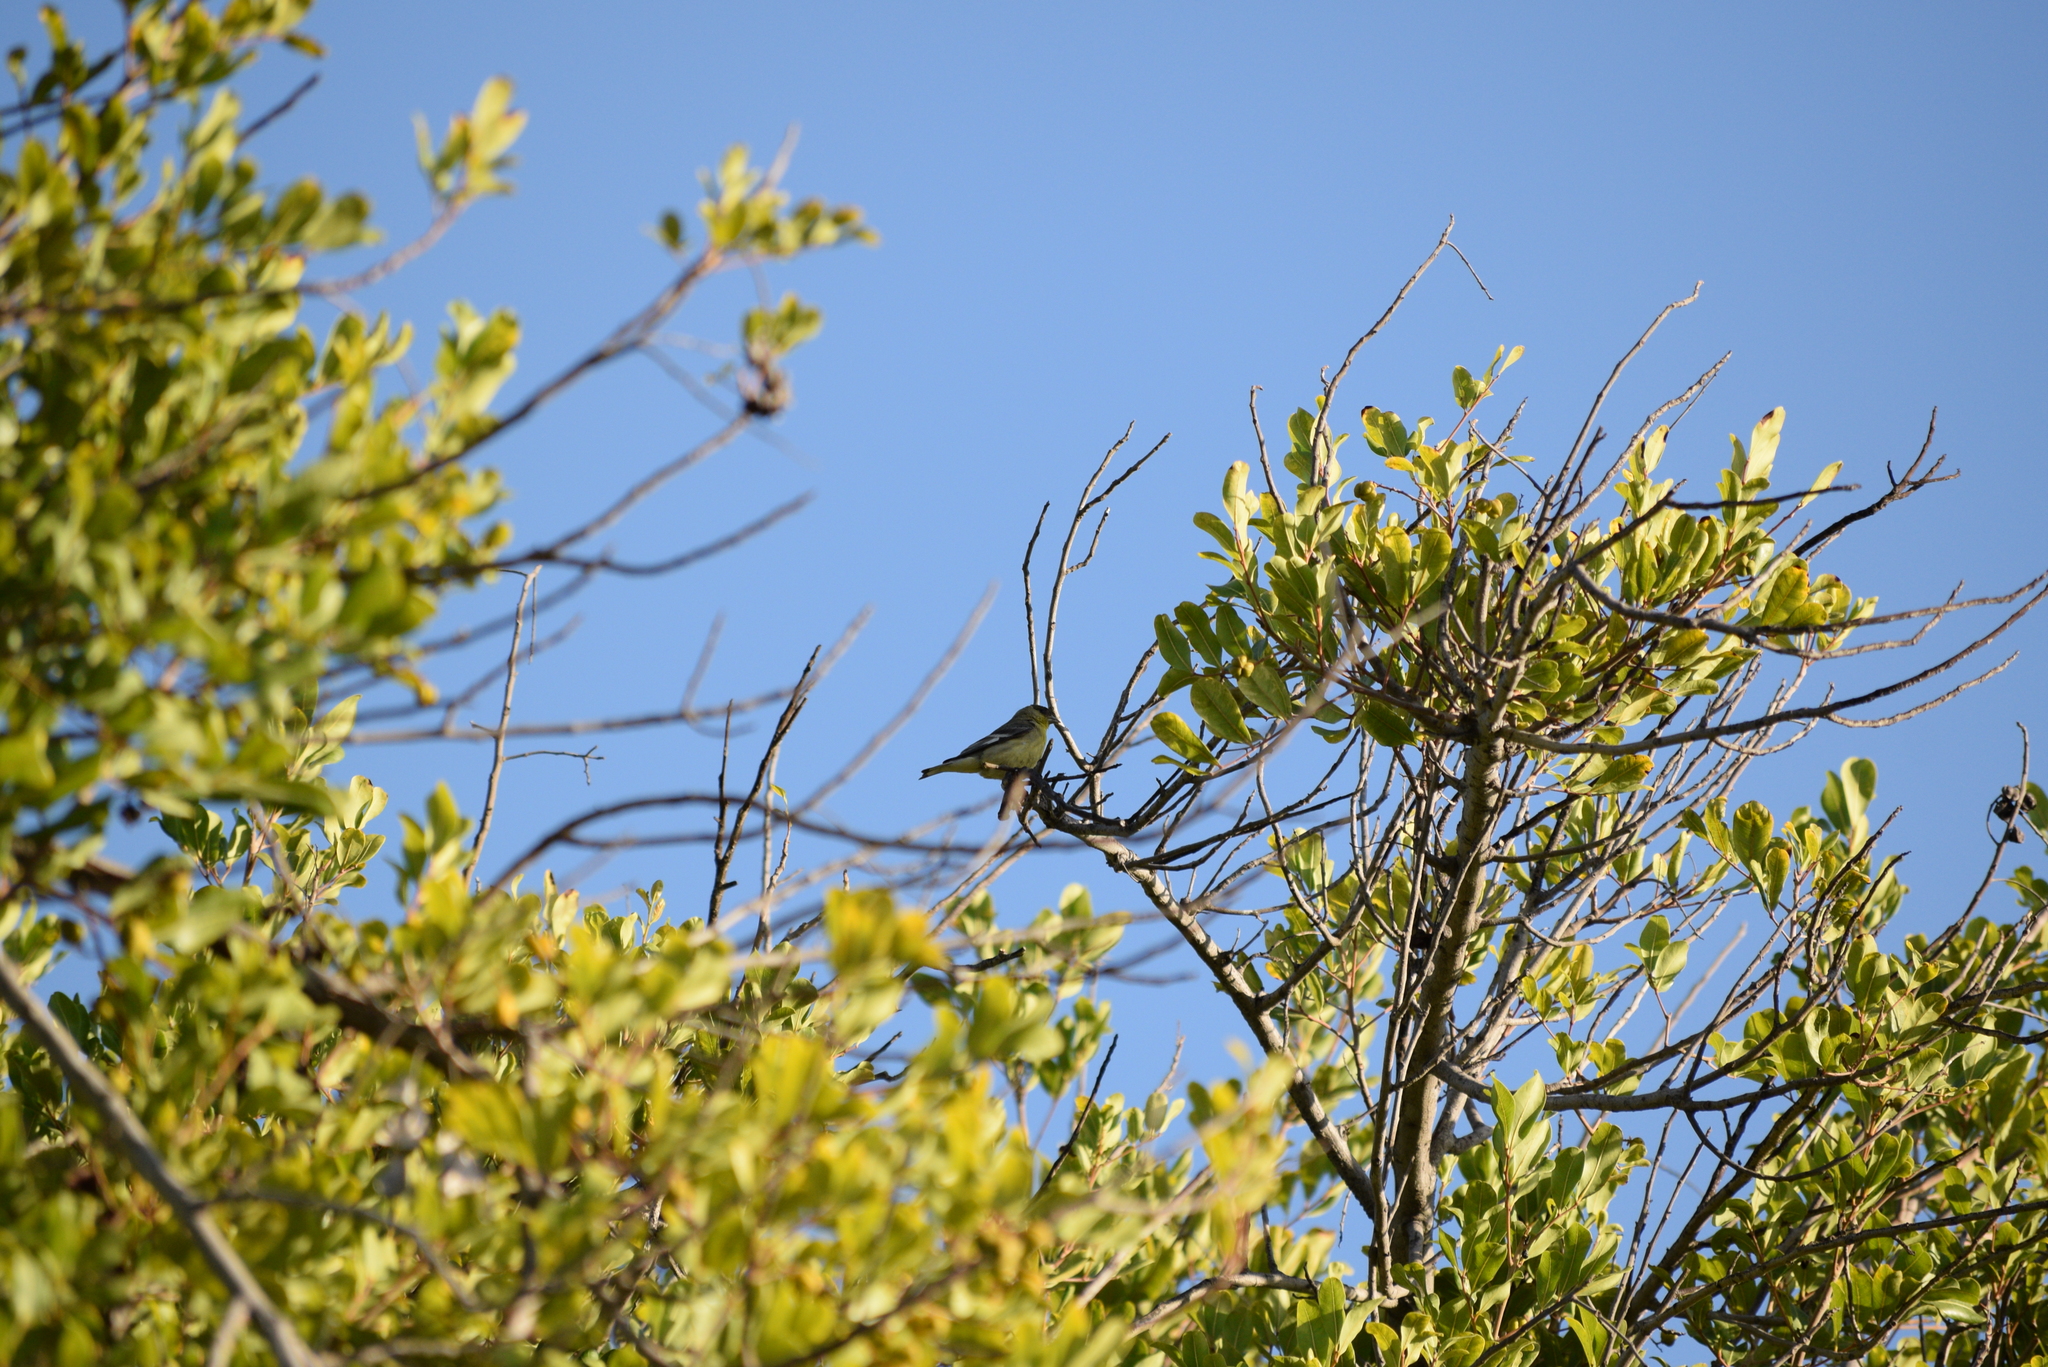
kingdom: Animalia
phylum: Chordata
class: Aves
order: Passeriformes
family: Fringillidae
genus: Spinus
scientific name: Spinus psaltria
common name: Lesser goldfinch
